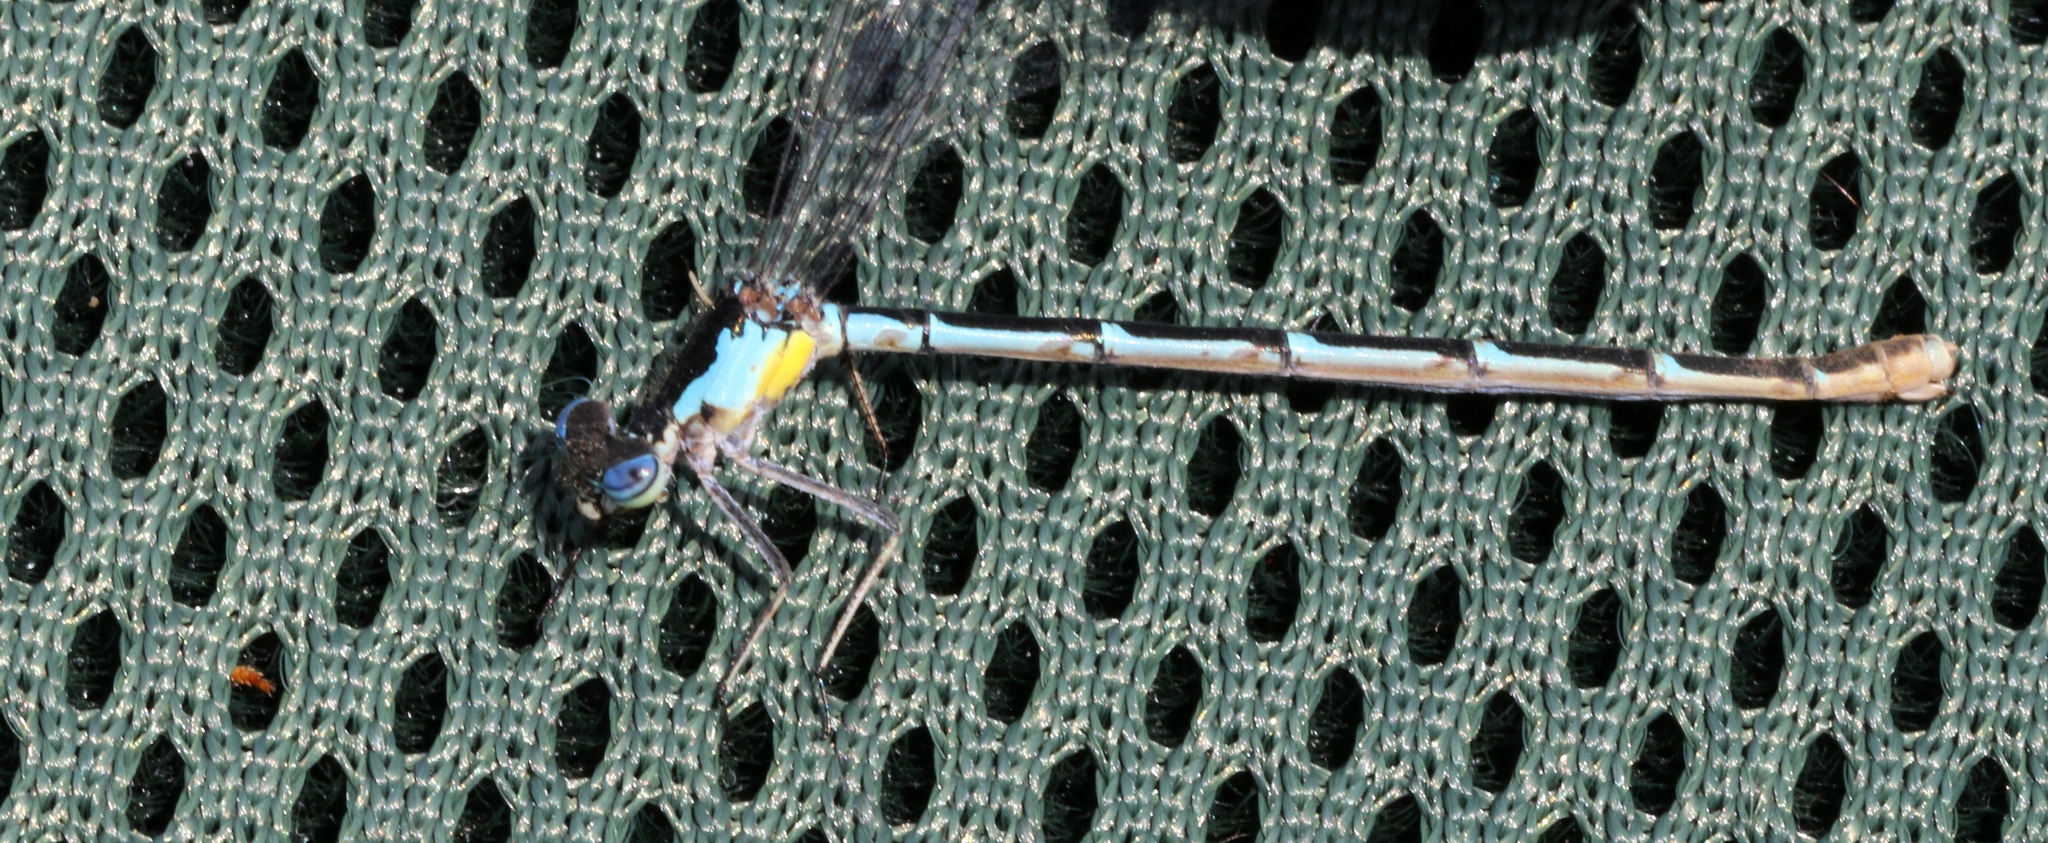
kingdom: Animalia
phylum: Arthropoda
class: Insecta
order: Odonata
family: Coenagrionidae
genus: Chromagrion
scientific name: Chromagrion conditum
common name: Aurora damsel
